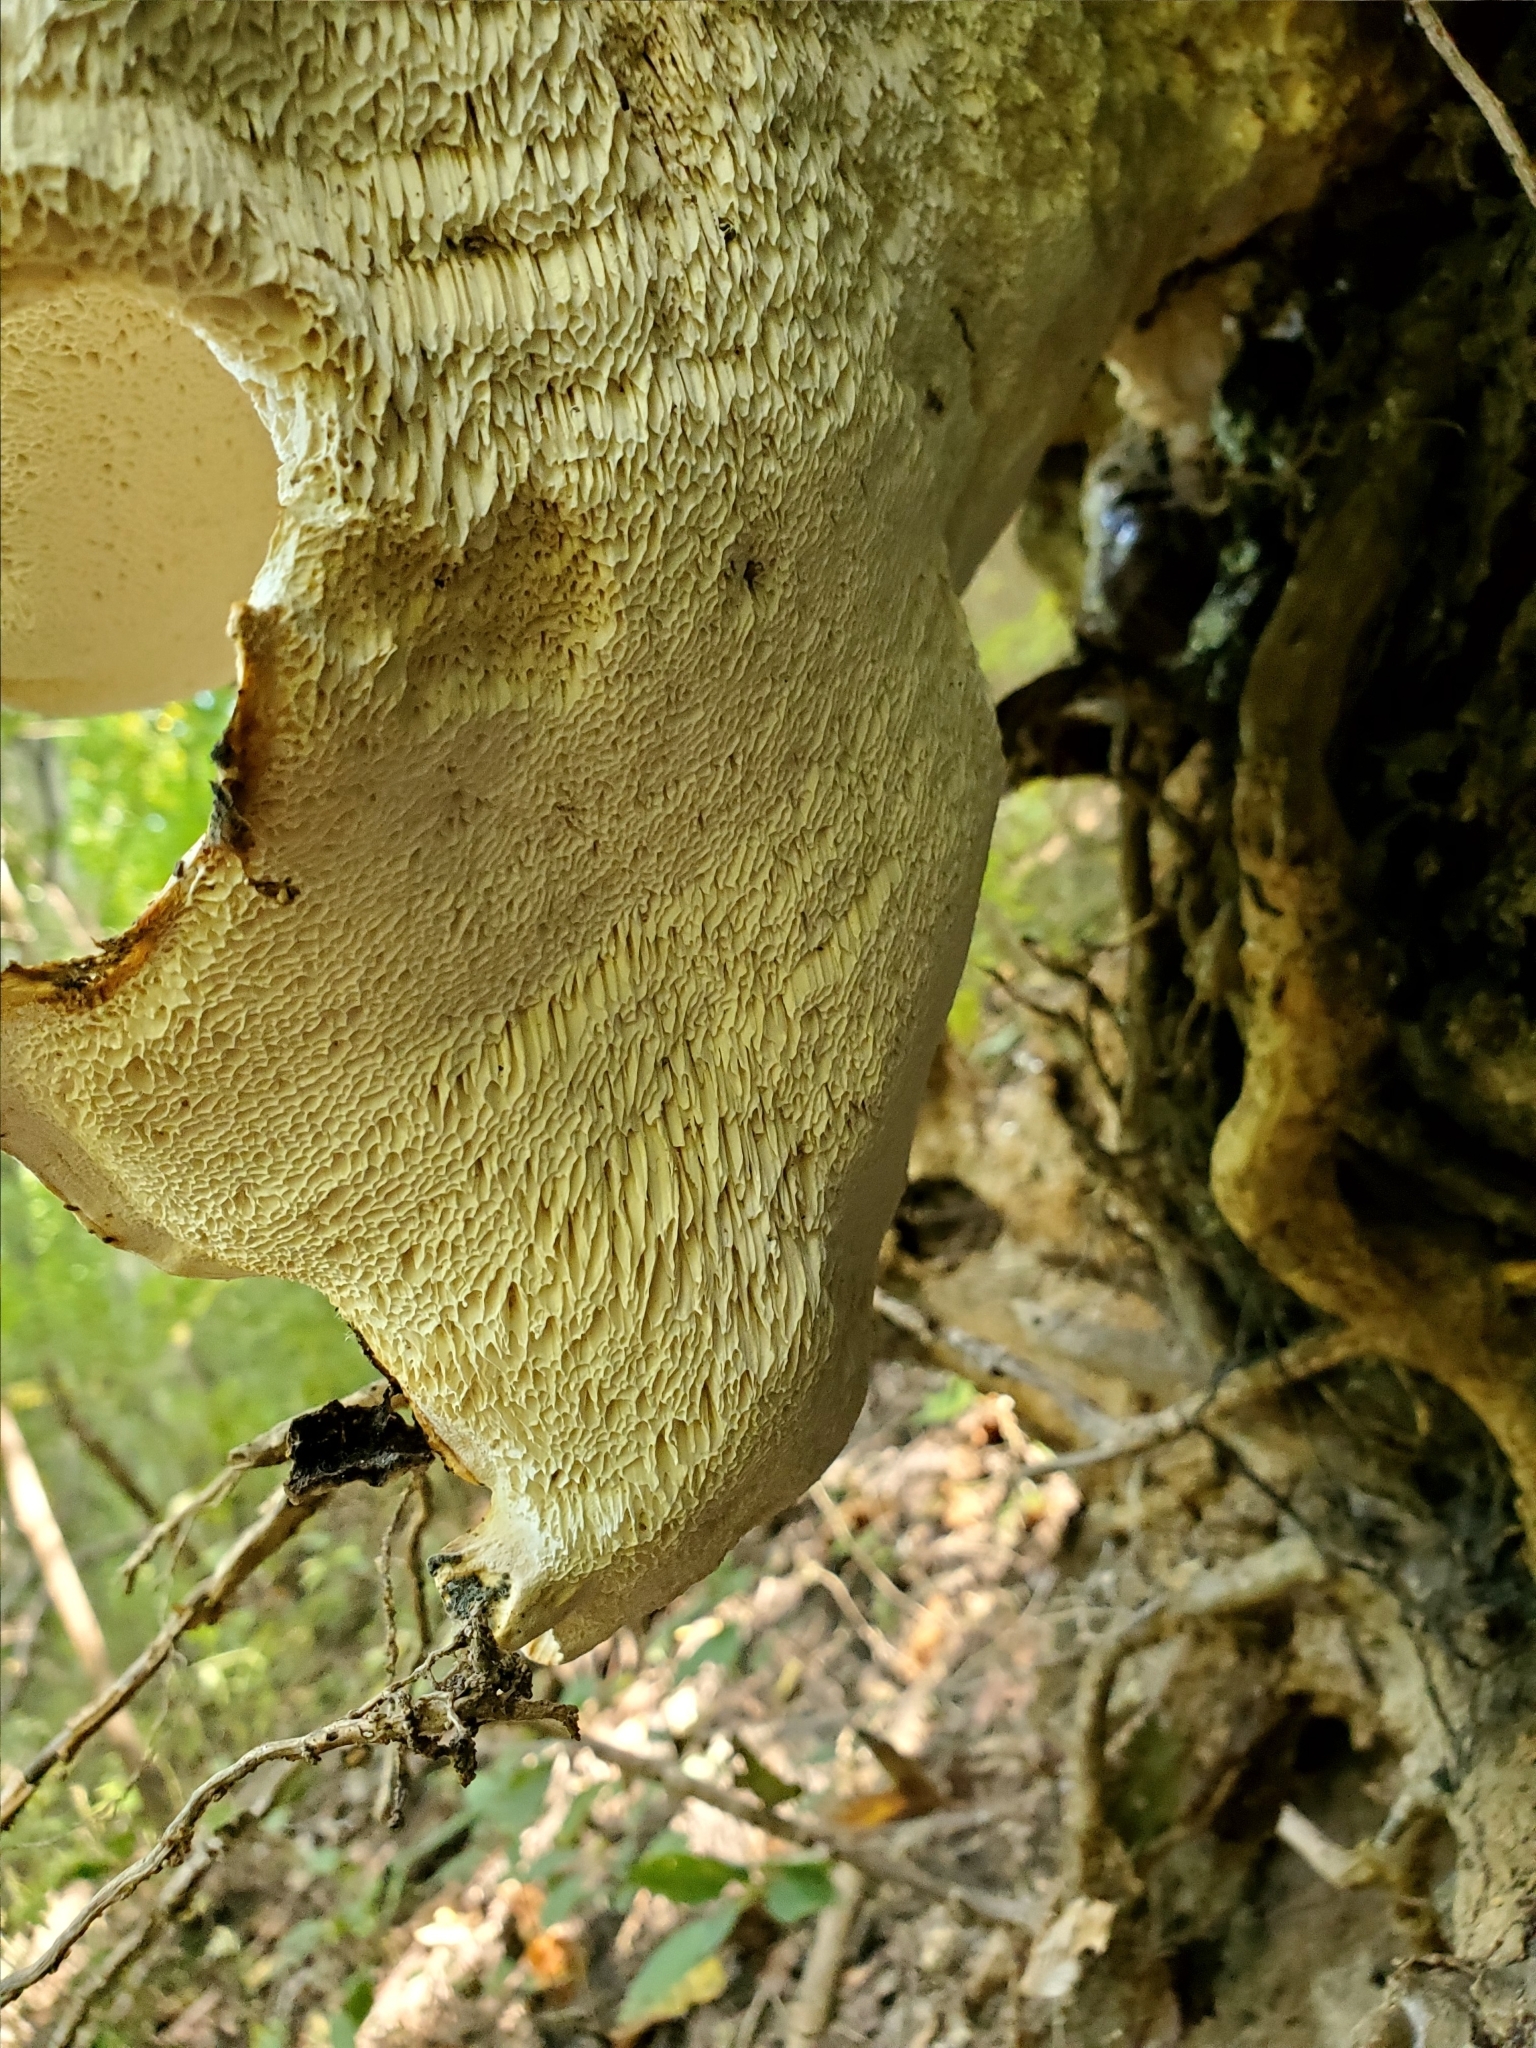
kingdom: Fungi
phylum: Basidiomycota
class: Agaricomycetes
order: Russulales
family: Bondarzewiaceae
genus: Bondarzewia
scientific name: Bondarzewia berkeleyi
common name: Berkeley's polypore
